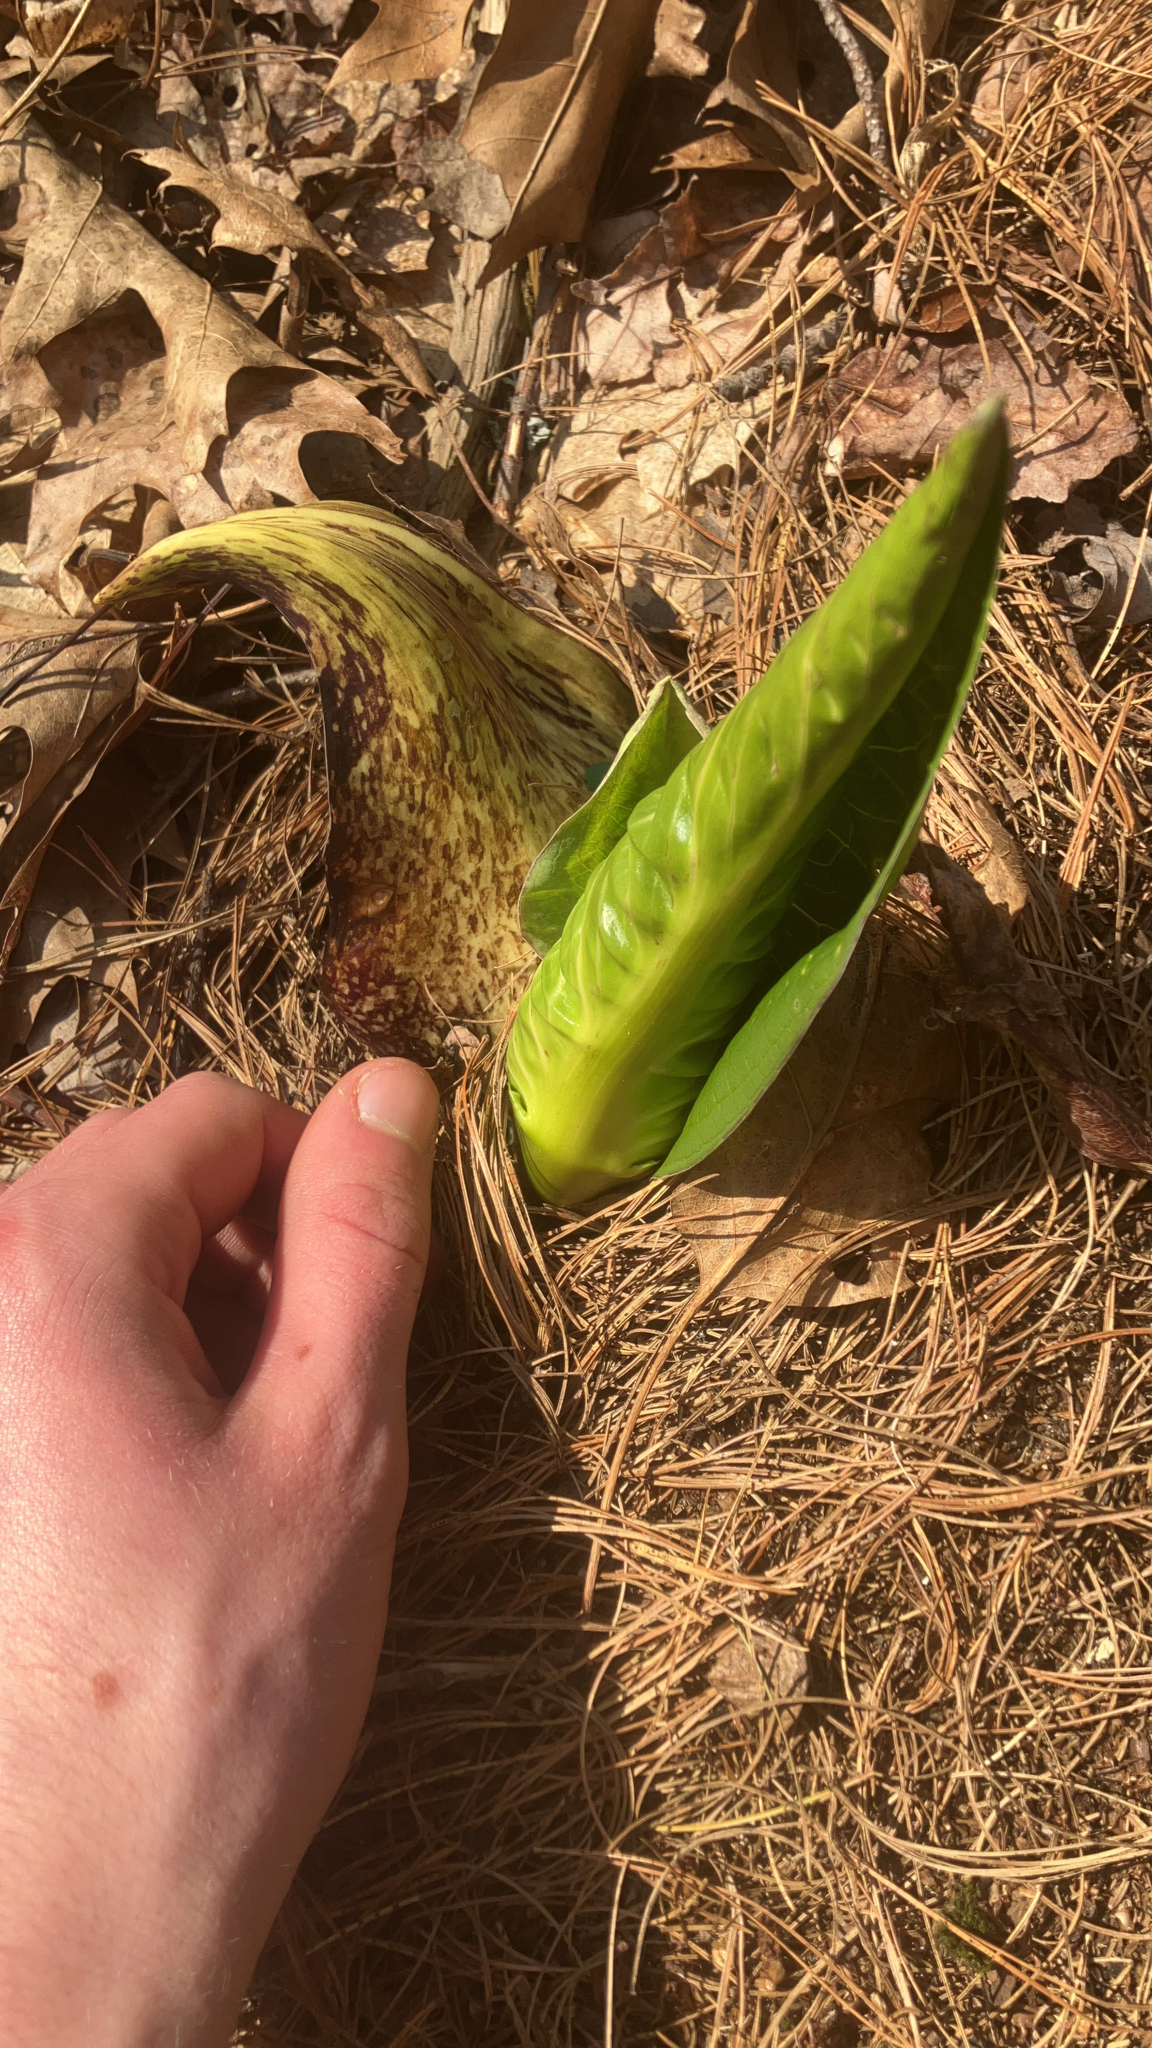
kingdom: Plantae
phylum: Tracheophyta
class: Liliopsida
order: Alismatales
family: Araceae
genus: Symplocarpus
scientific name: Symplocarpus foetidus
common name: Eastern skunk cabbage
